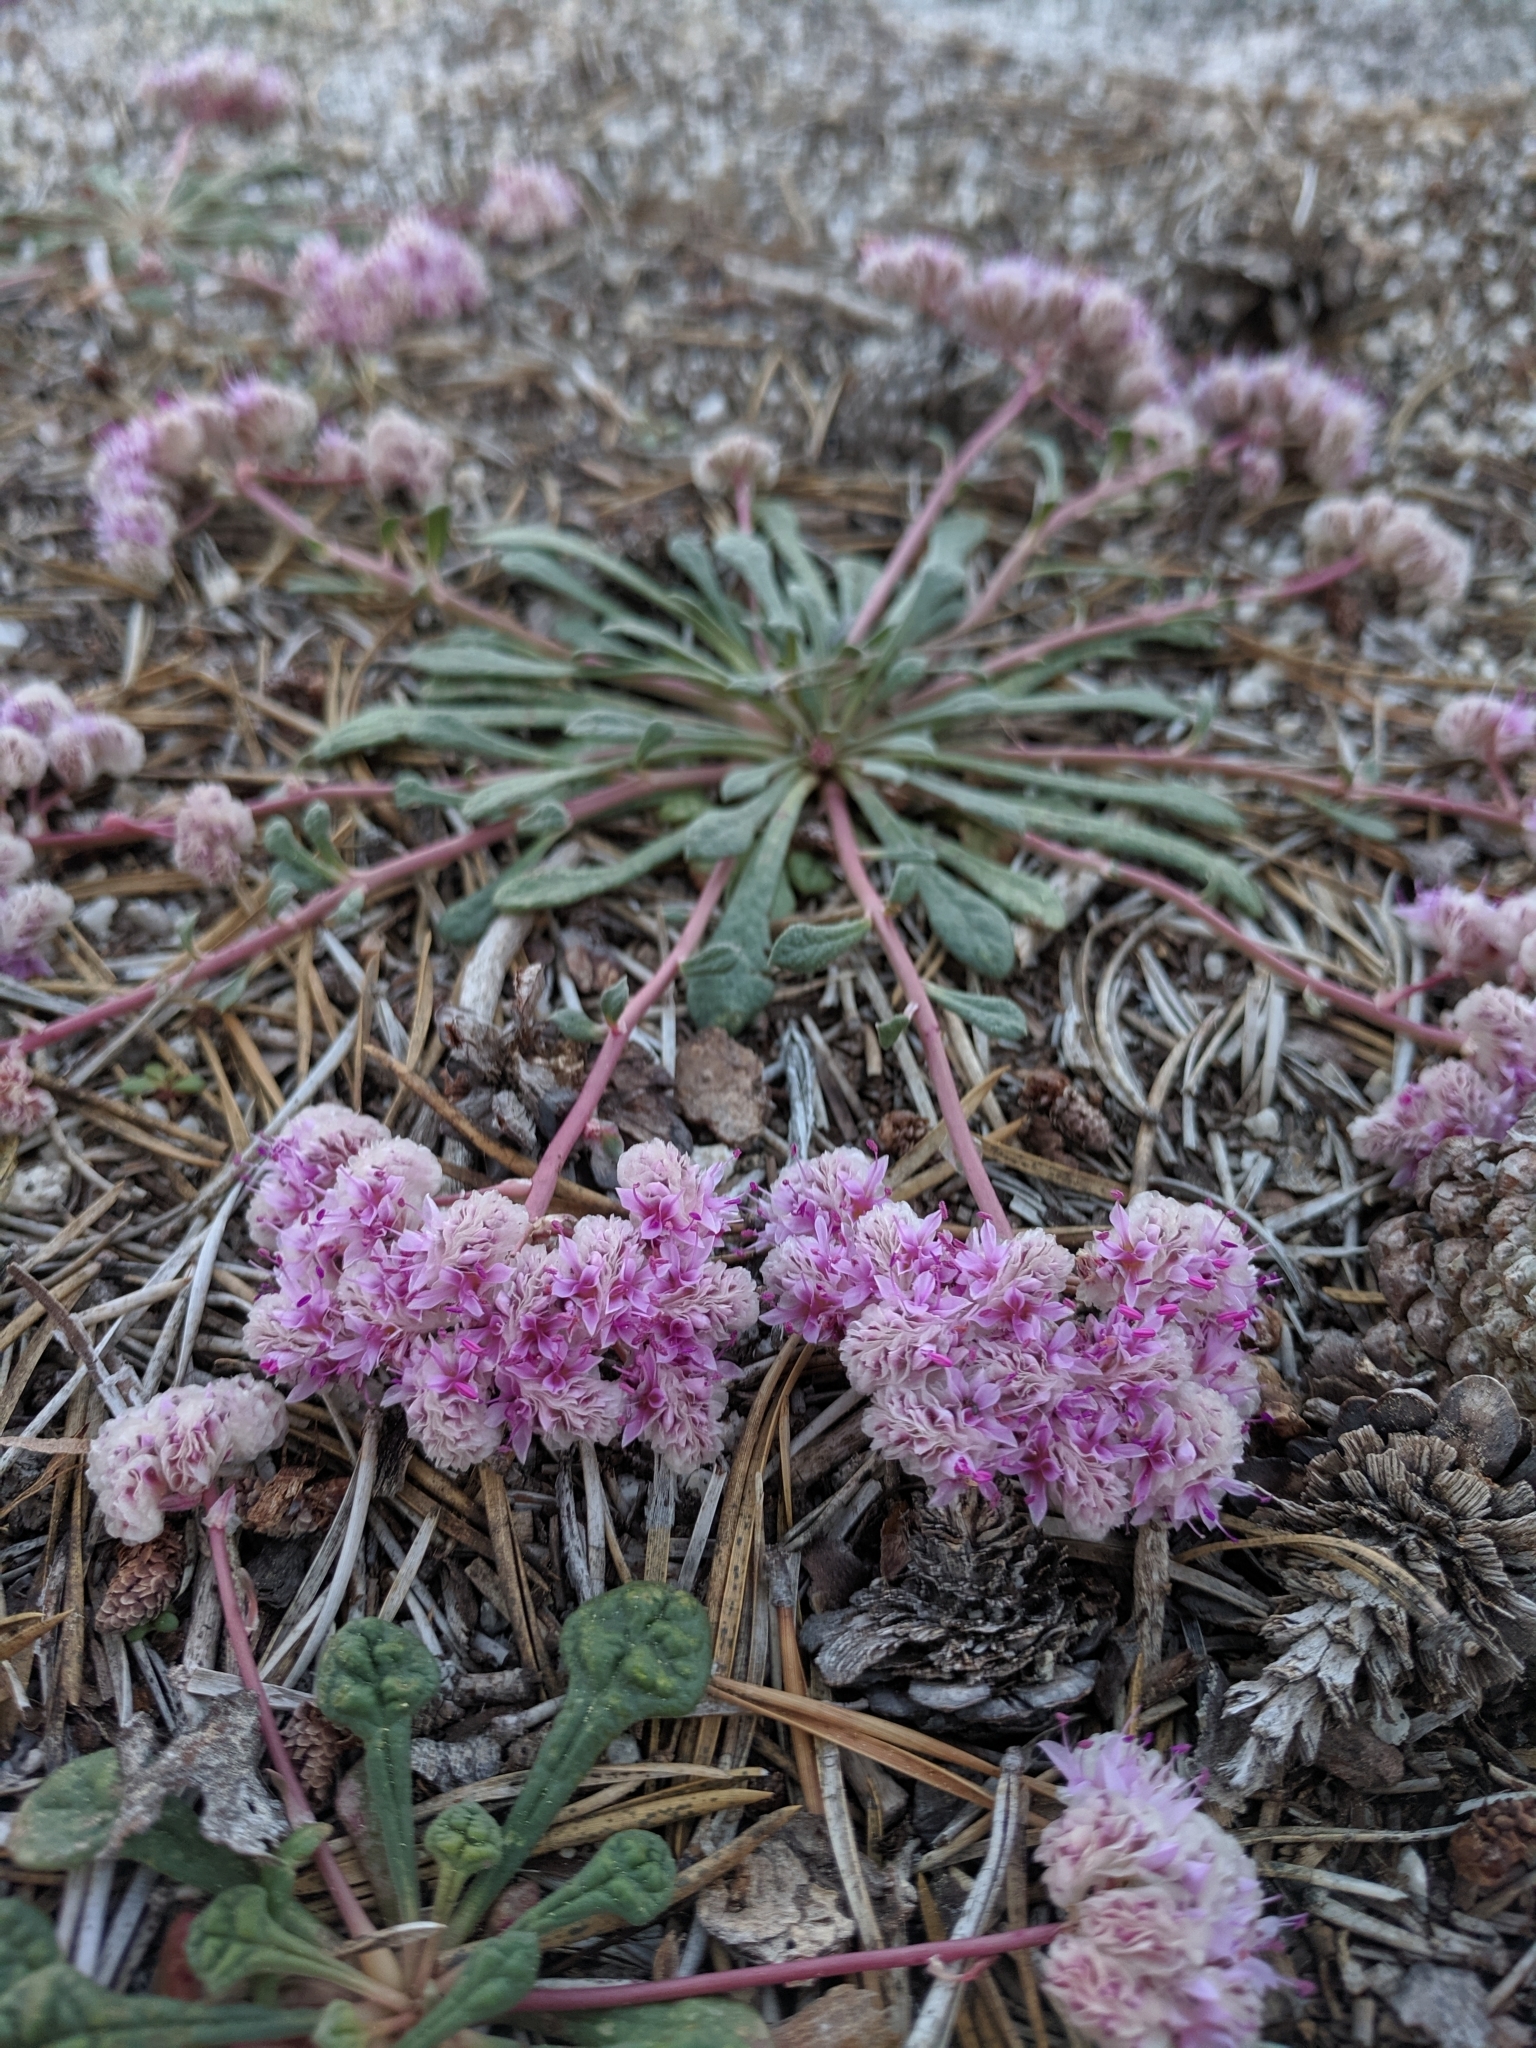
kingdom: Plantae
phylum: Tracheophyta
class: Magnoliopsida
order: Caryophyllales
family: Montiaceae
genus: Calyptridium
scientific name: Calyptridium monospermum
